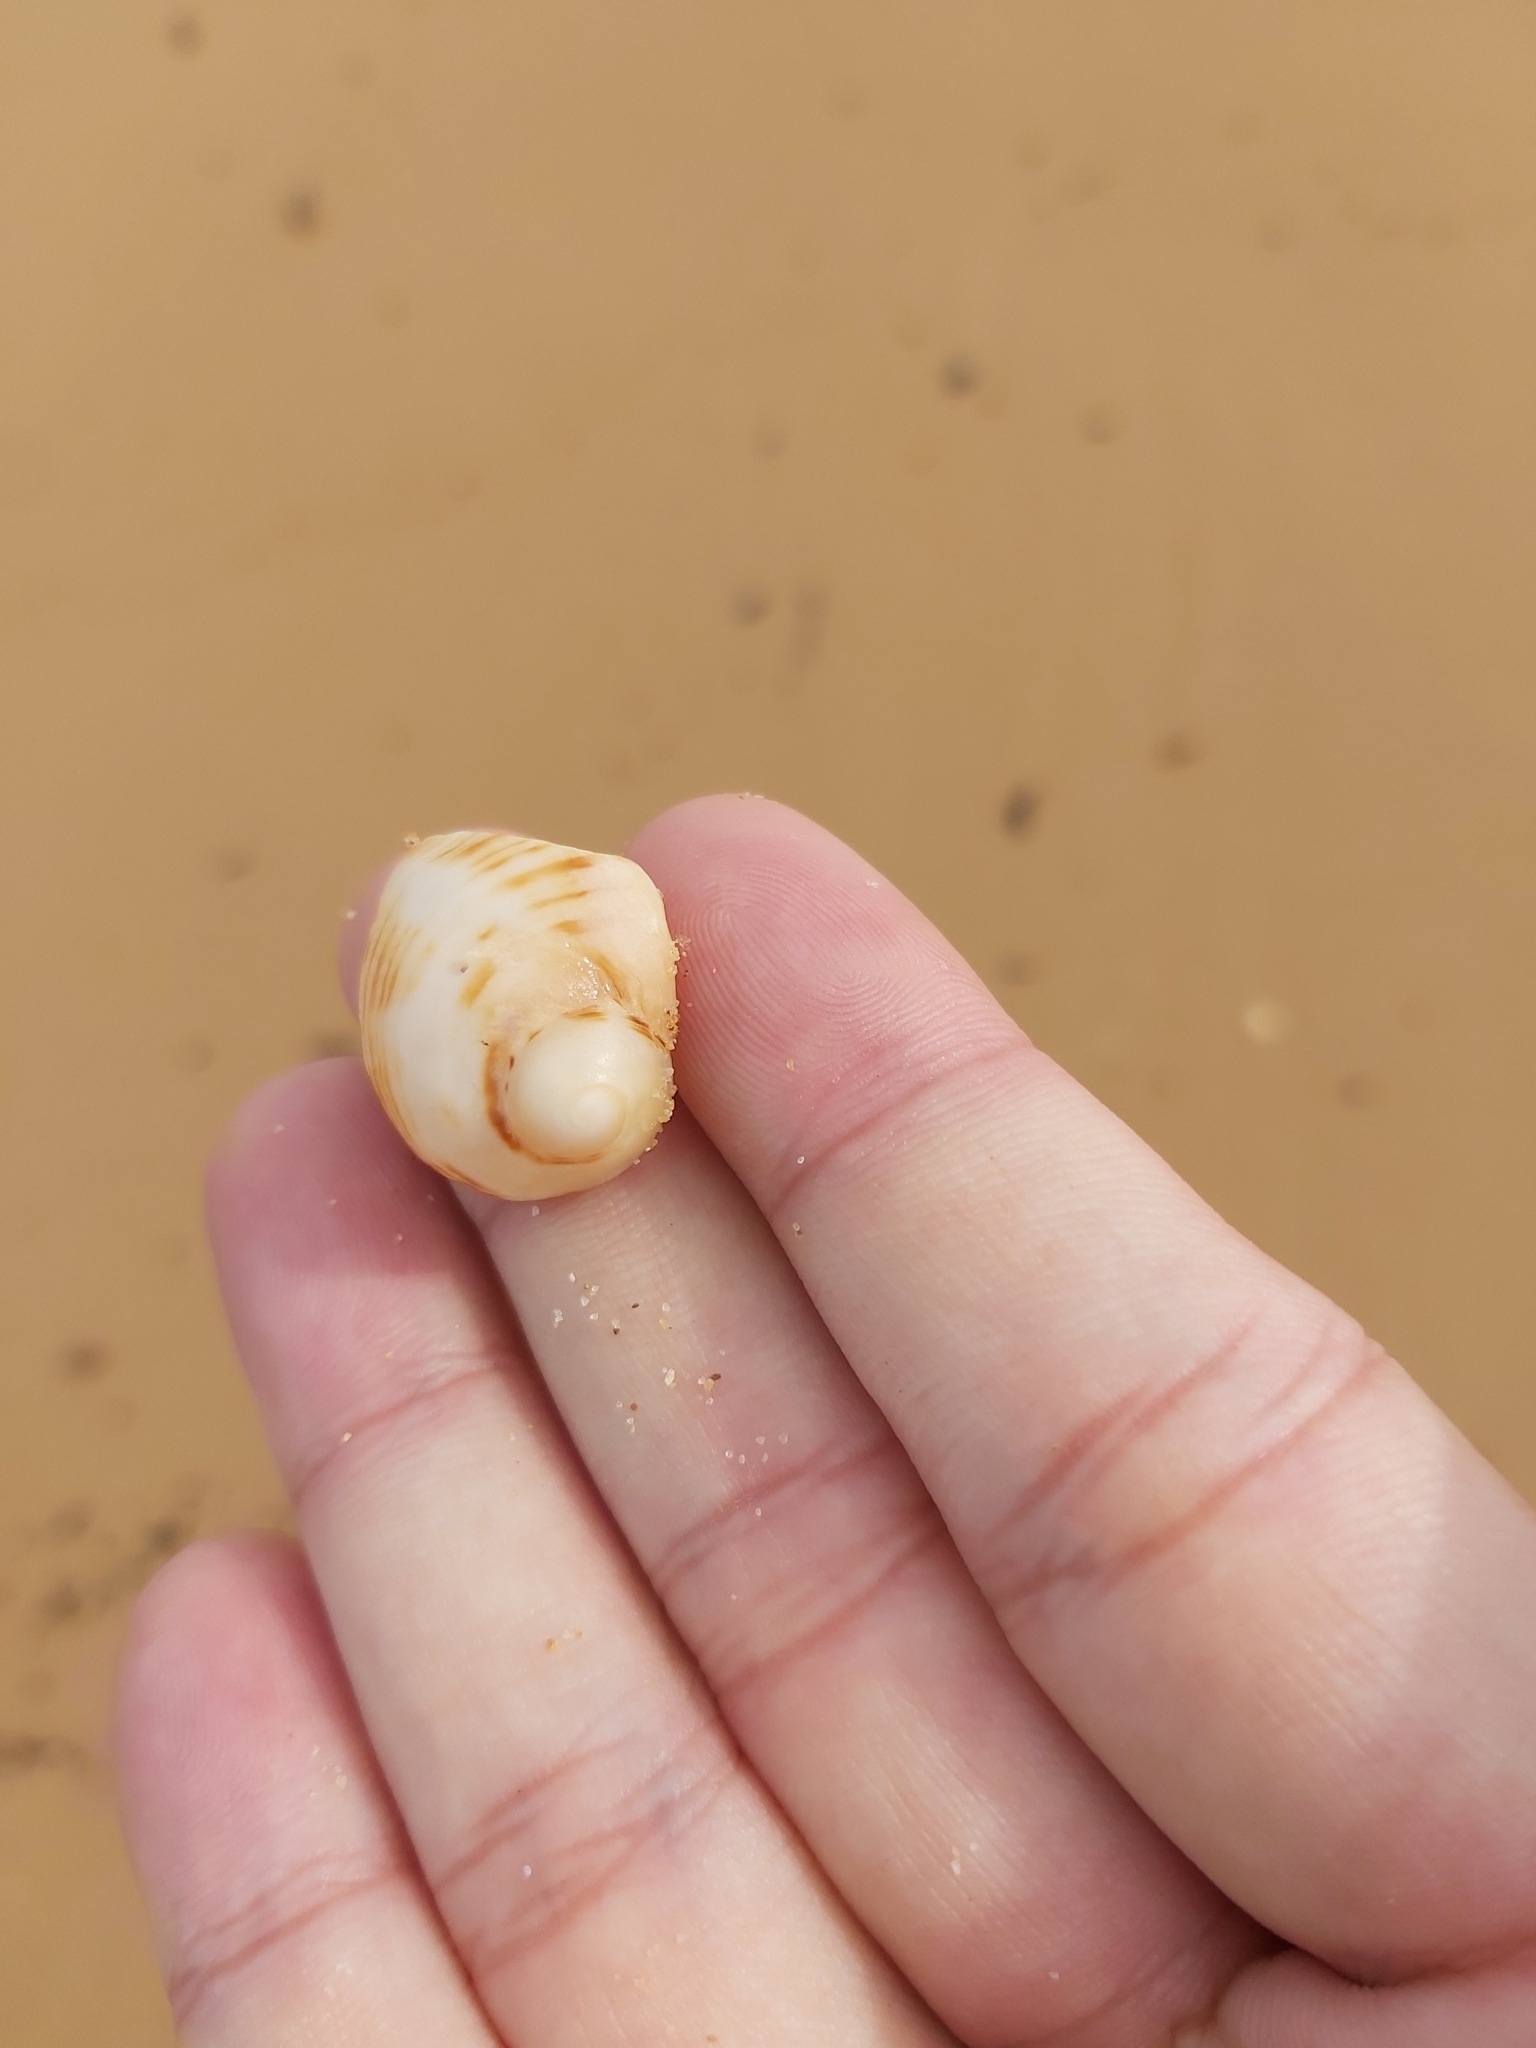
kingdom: Animalia
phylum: Mollusca
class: Gastropoda
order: Neogastropoda
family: Muricidae
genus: Dicathais
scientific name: Dicathais orbita
